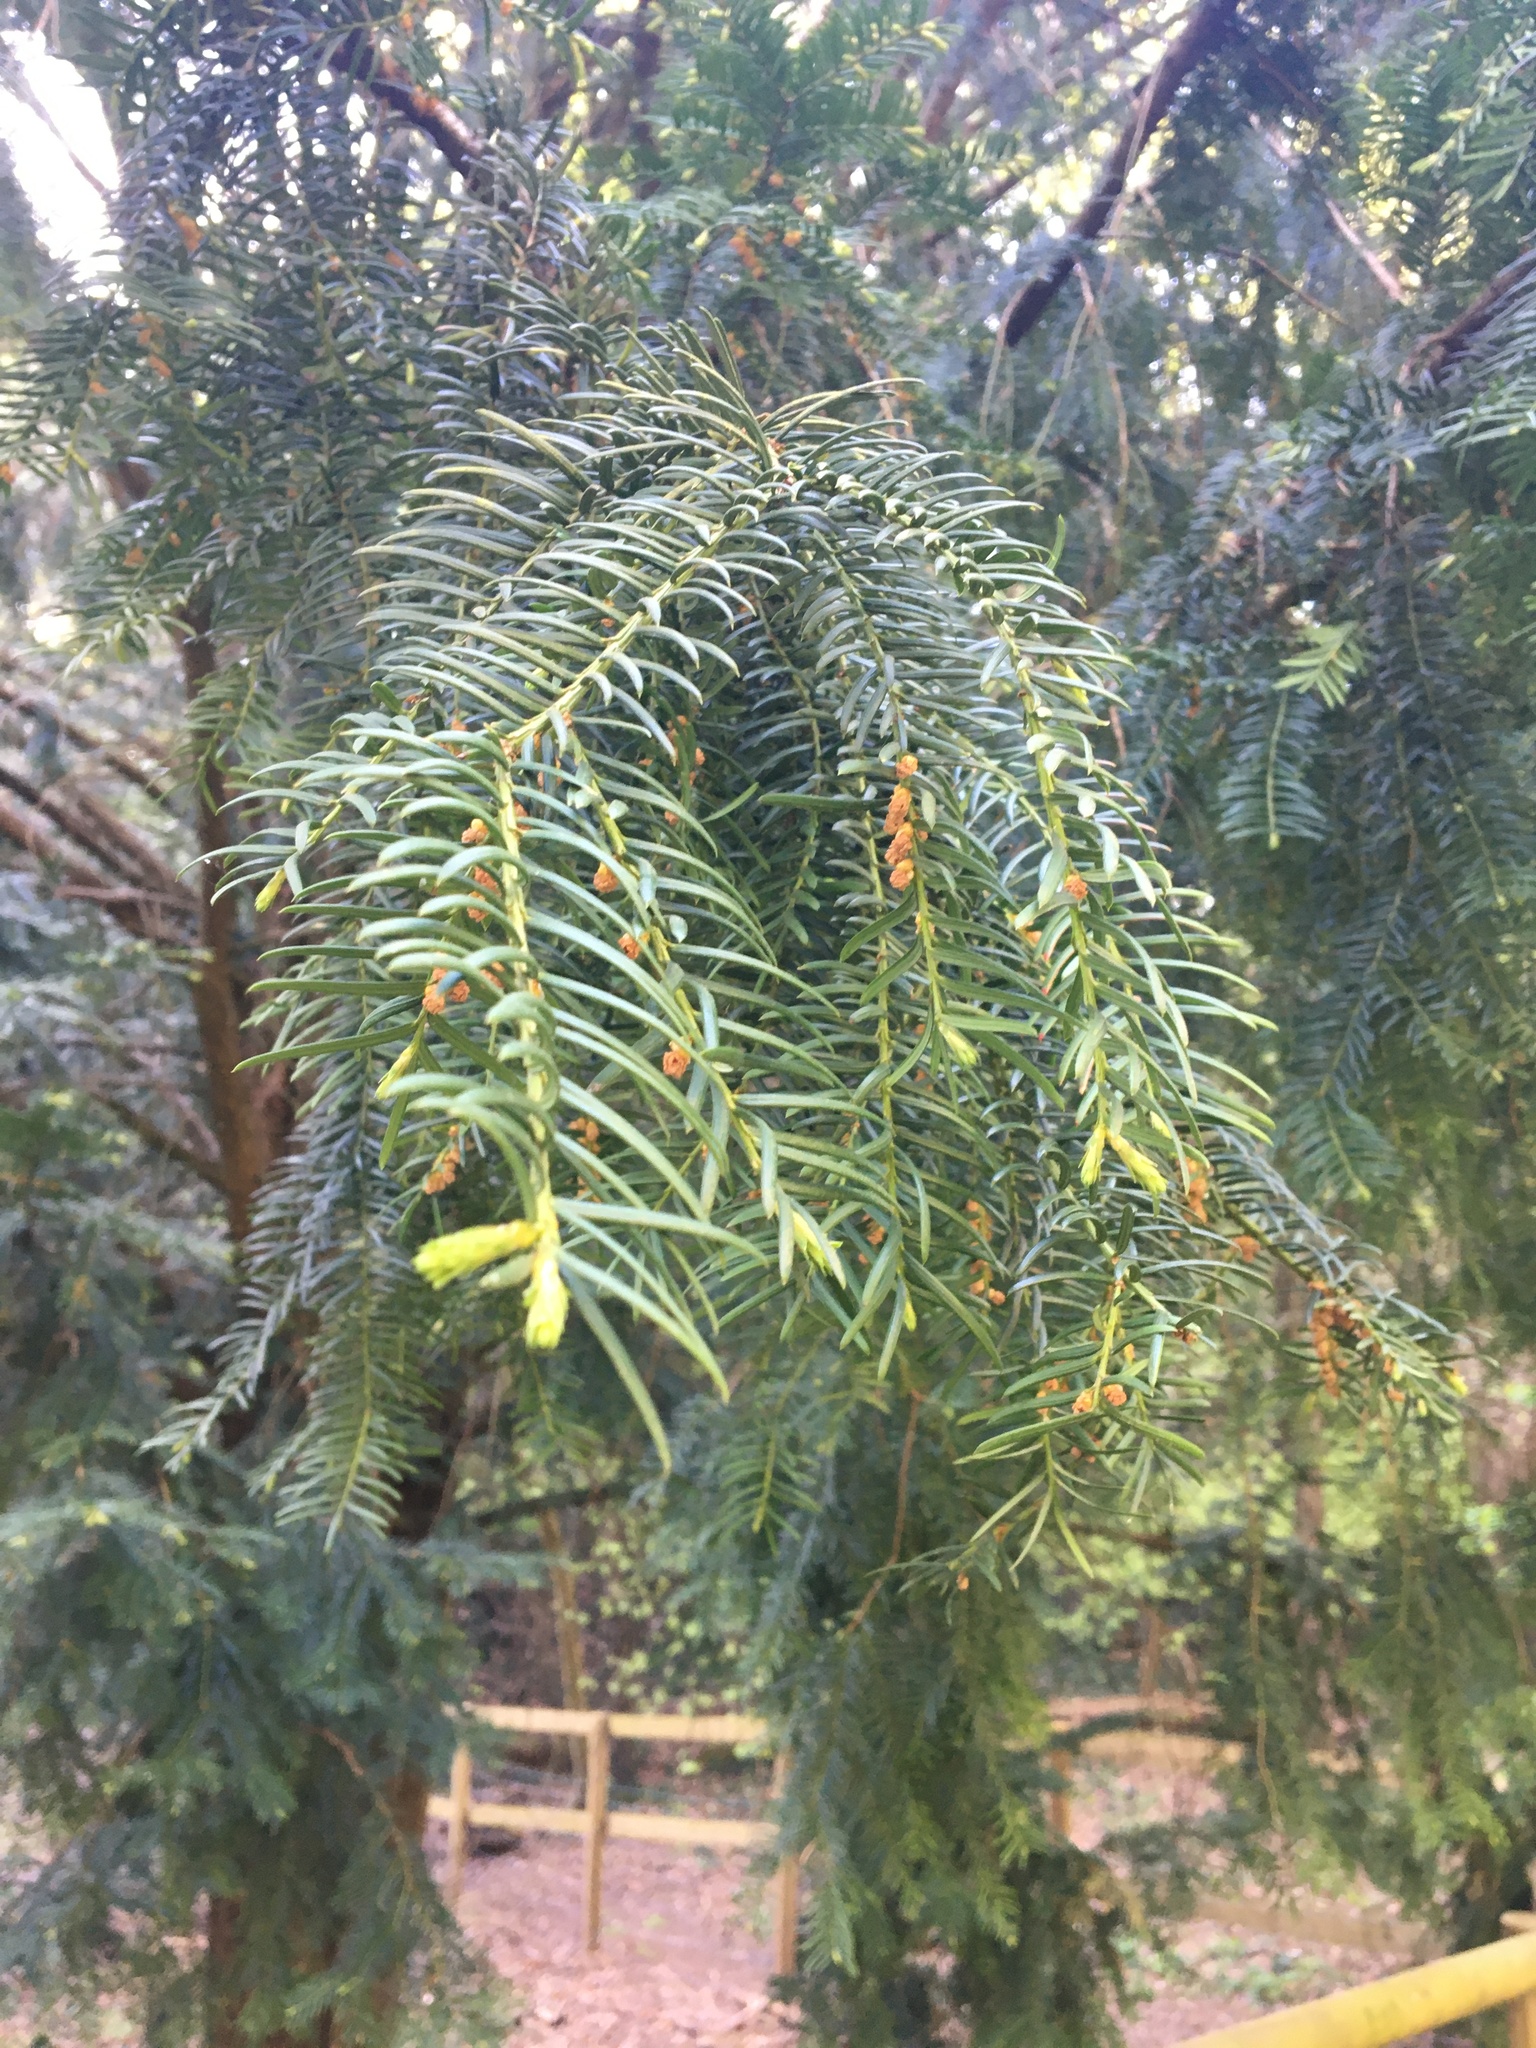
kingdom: Plantae
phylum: Tracheophyta
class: Pinopsida
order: Pinales
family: Taxaceae
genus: Taxus
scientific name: Taxus baccata
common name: Yew
